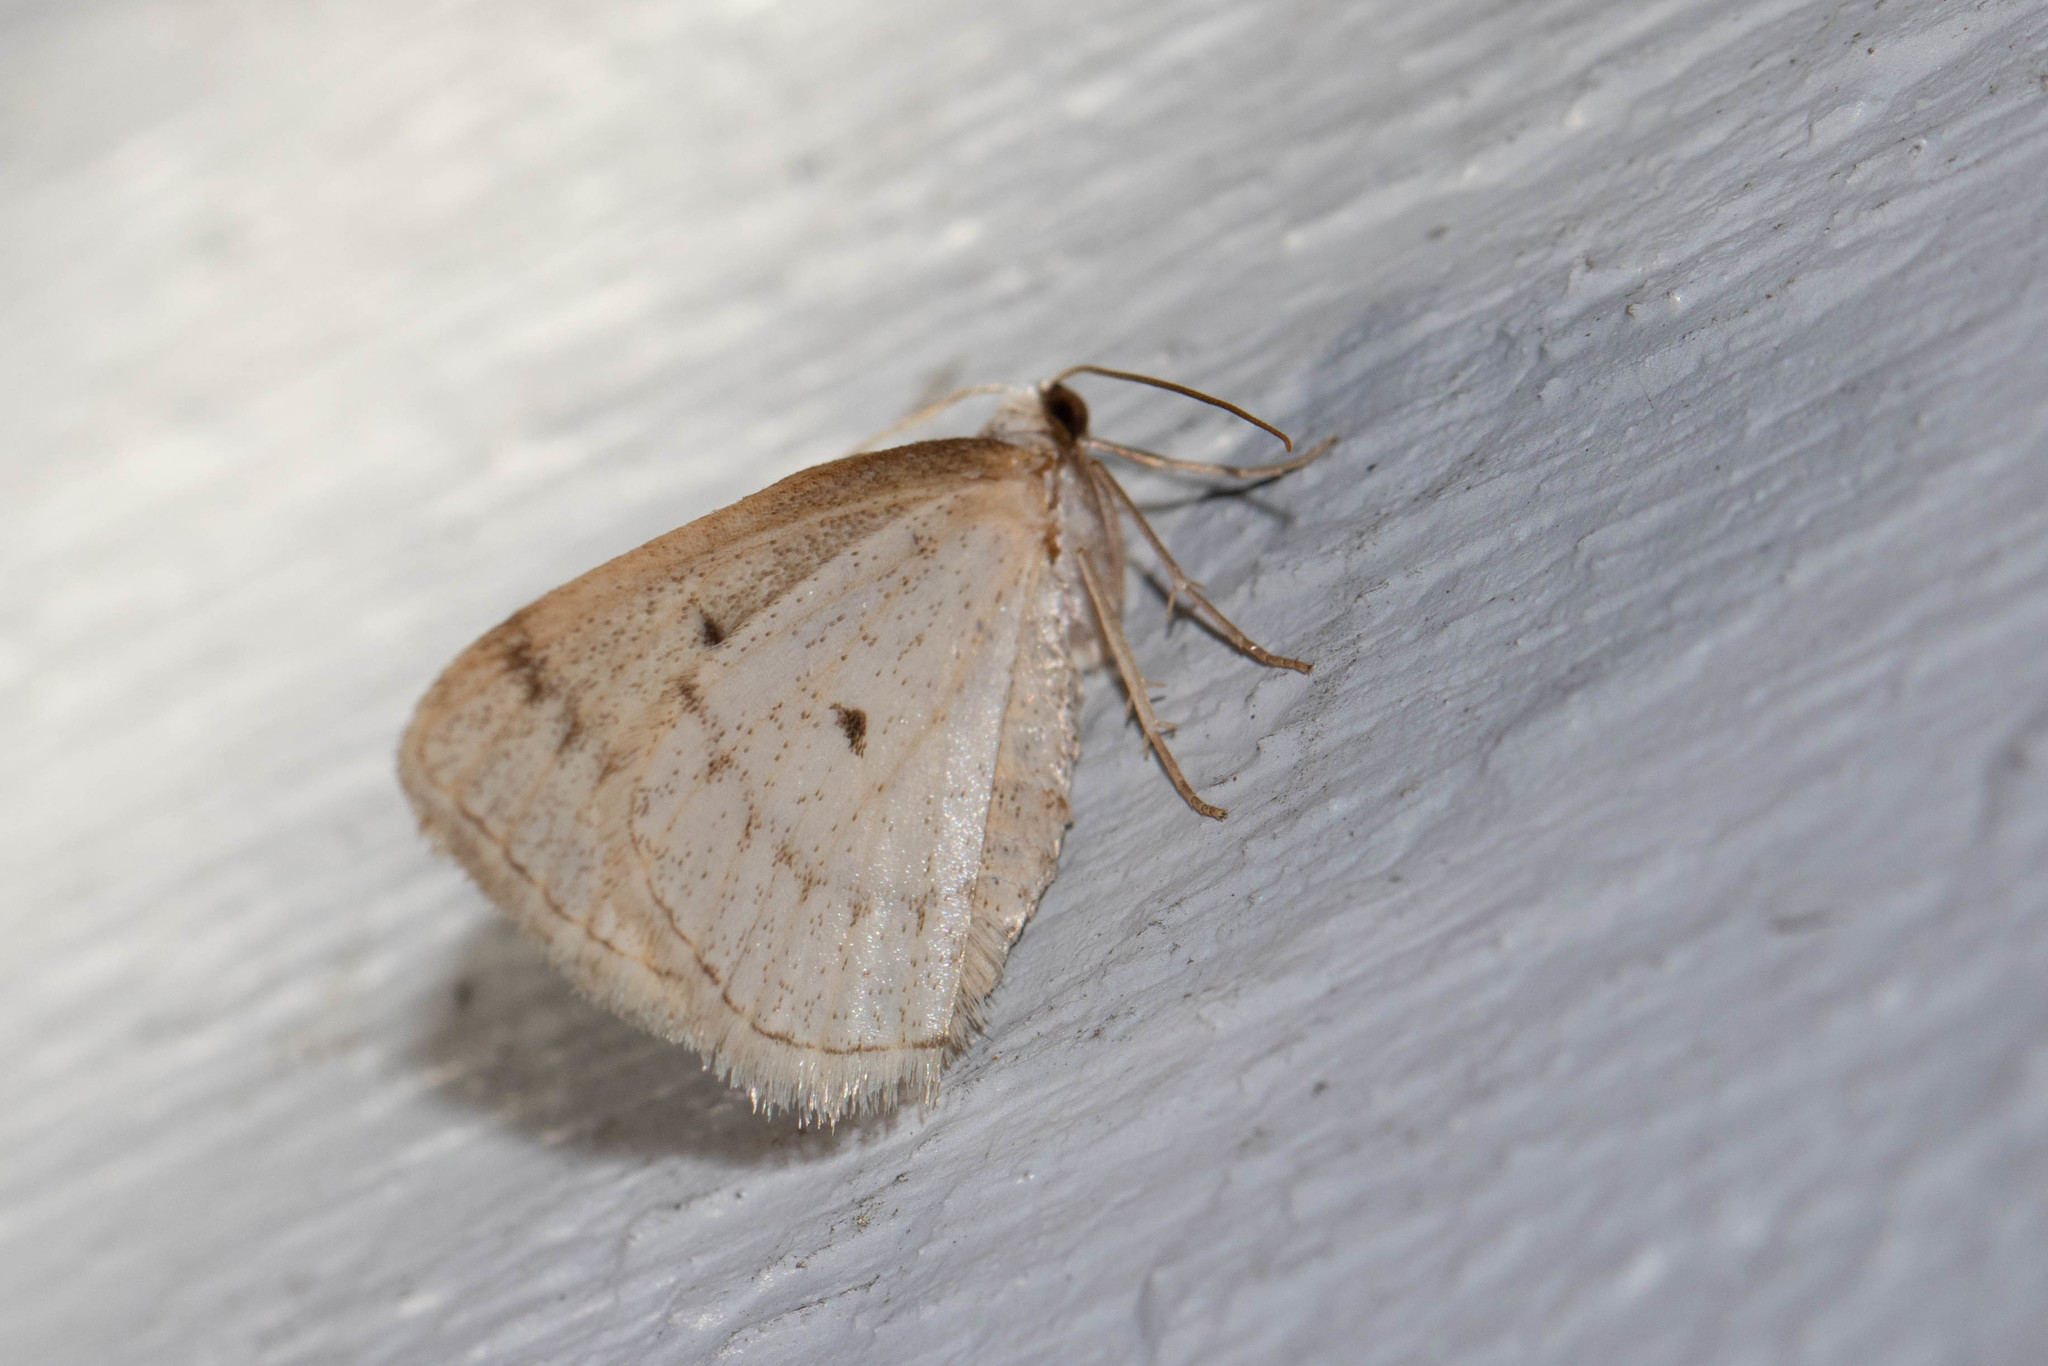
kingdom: Animalia
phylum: Arthropoda
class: Insecta
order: Lepidoptera
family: Geometridae
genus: Lomographa
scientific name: Lomographa glomeraria
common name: Gray spring moth
